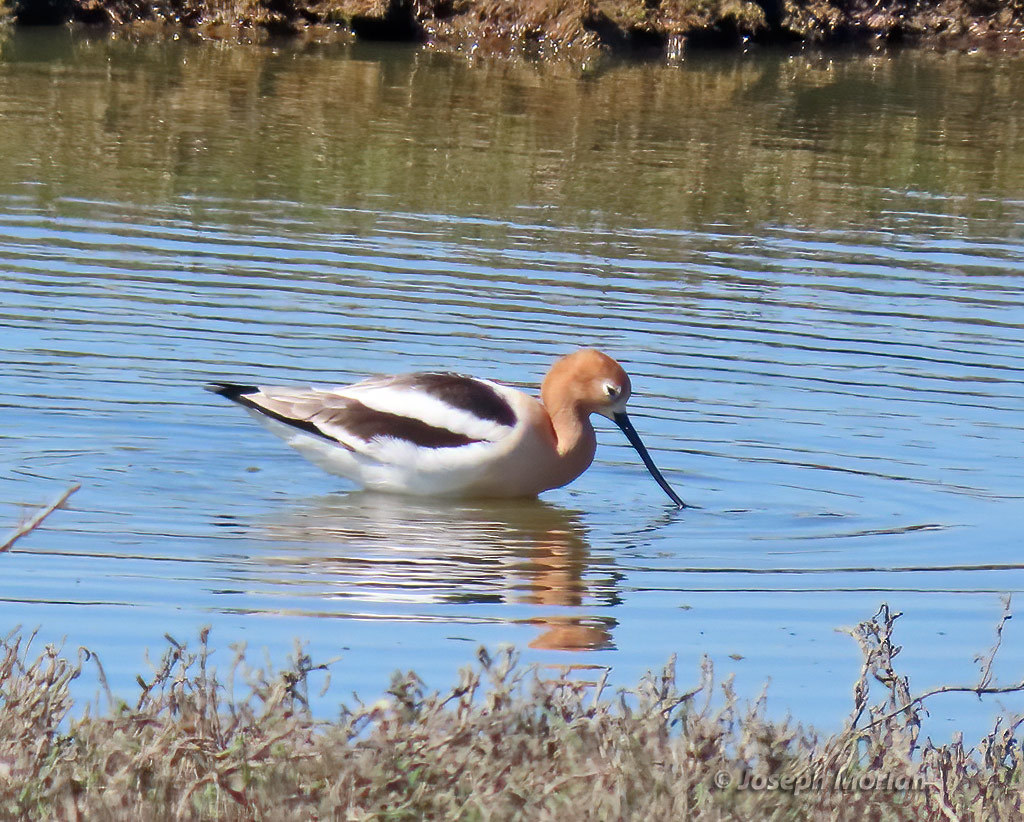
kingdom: Animalia
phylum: Chordata
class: Aves
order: Charadriiformes
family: Recurvirostridae
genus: Recurvirostra
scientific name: Recurvirostra americana
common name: American avocet
